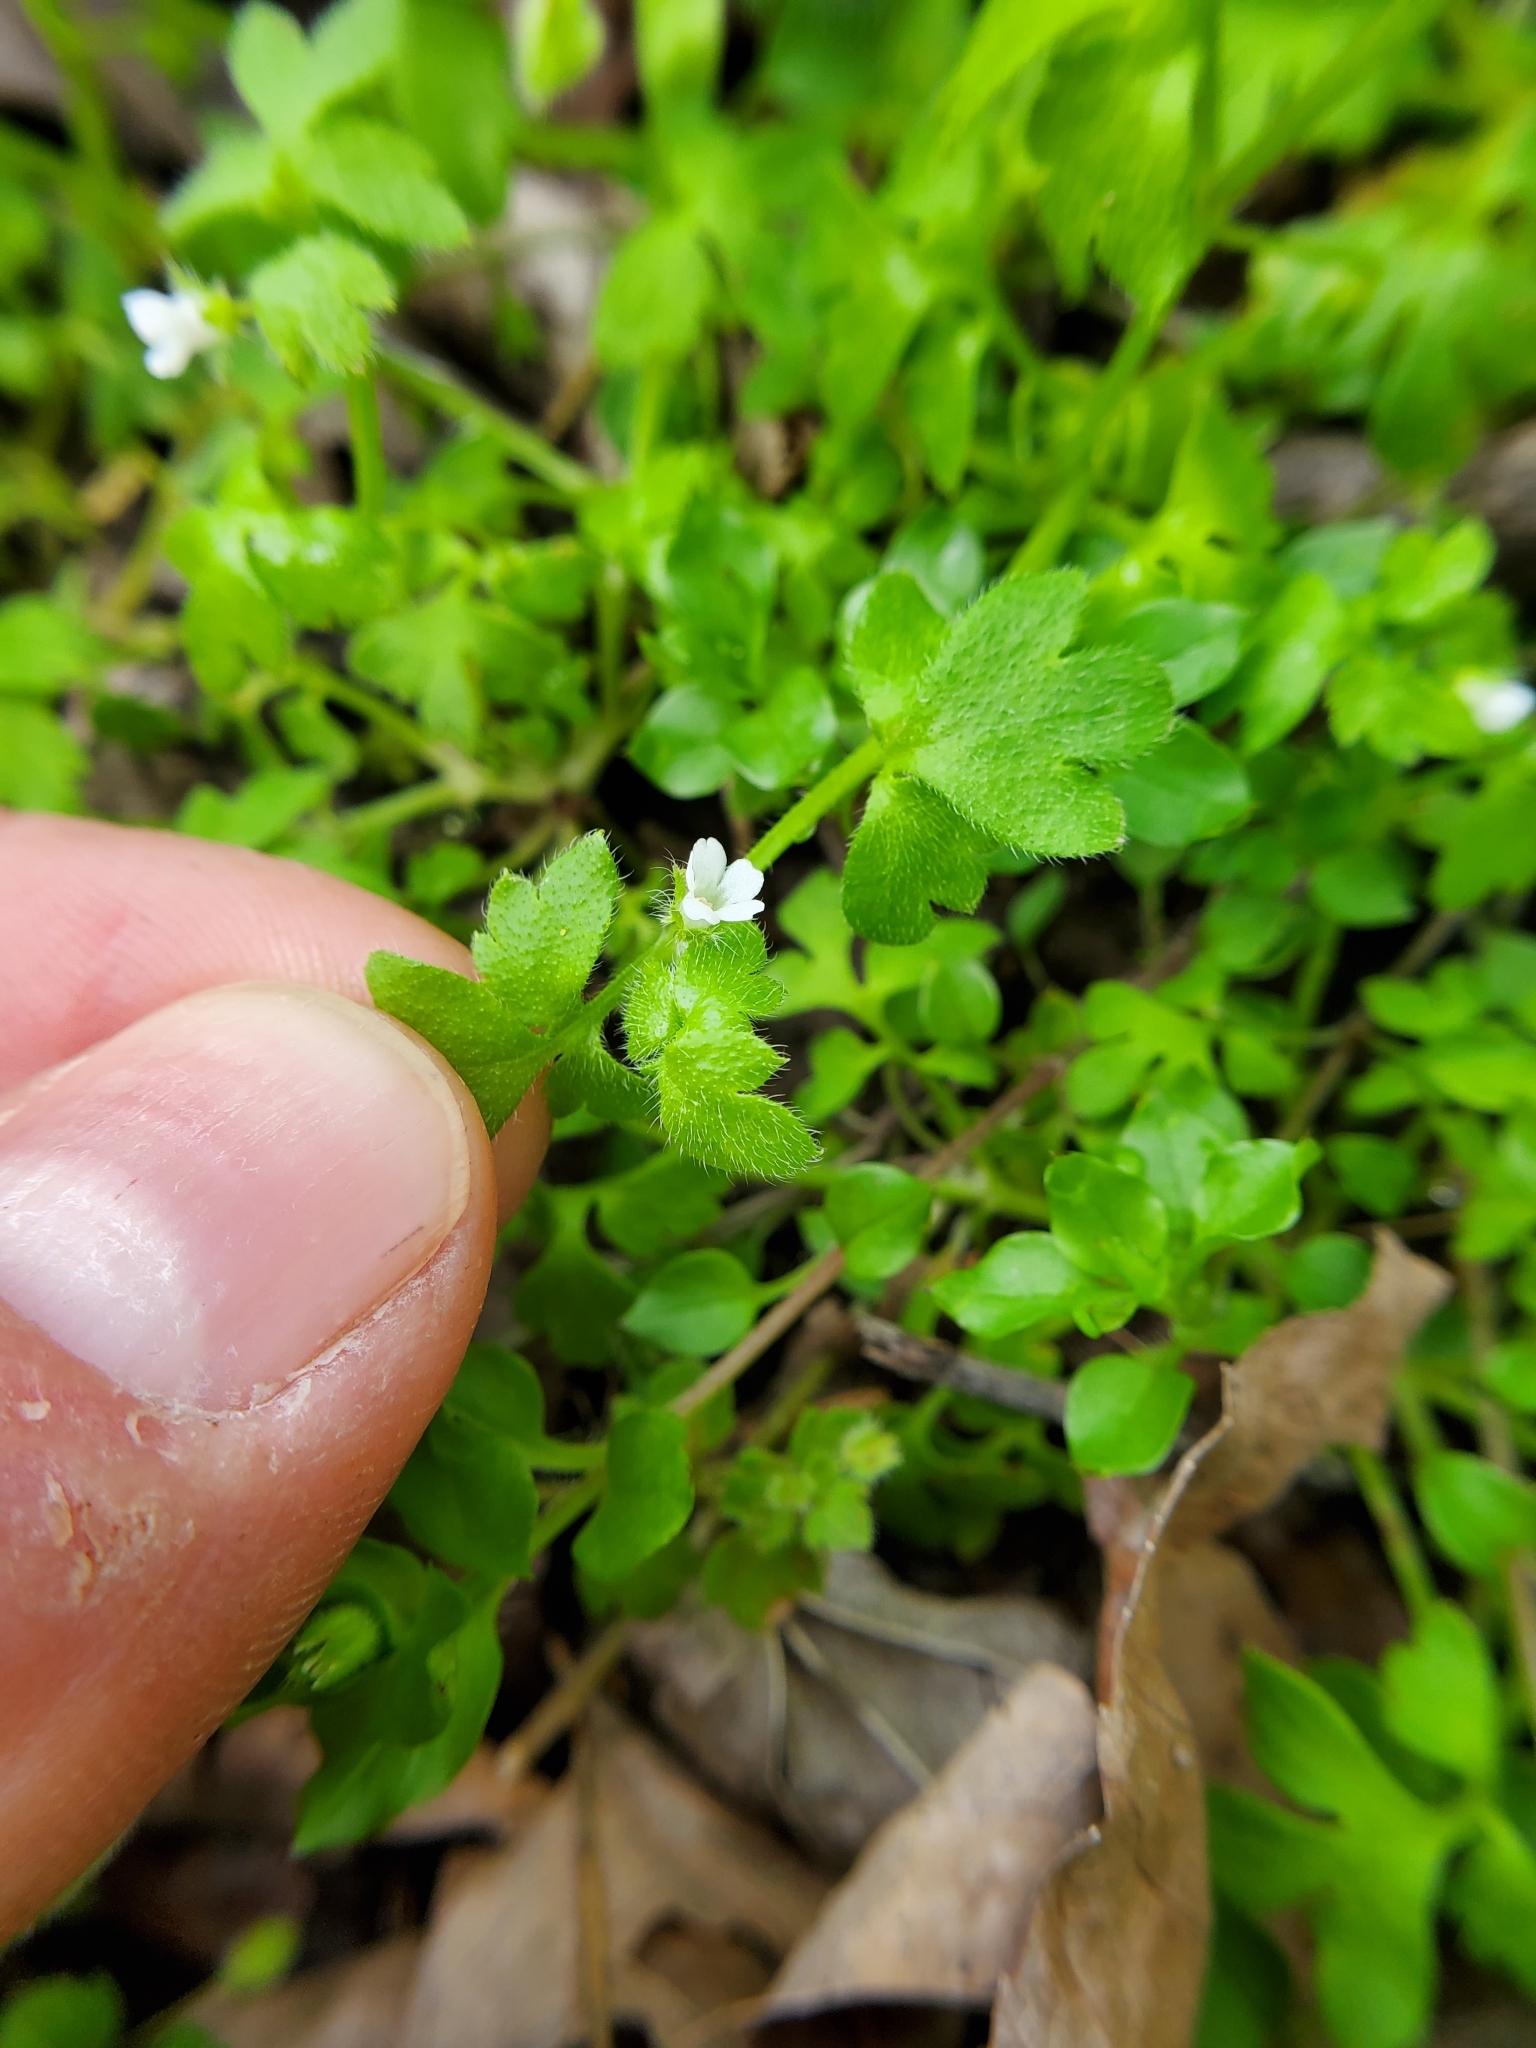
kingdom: Plantae
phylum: Tracheophyta
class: Magnoliopsida
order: Boraginales
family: Hydrophyllaceae
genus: Nemophila
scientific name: Nemophila aphylla
